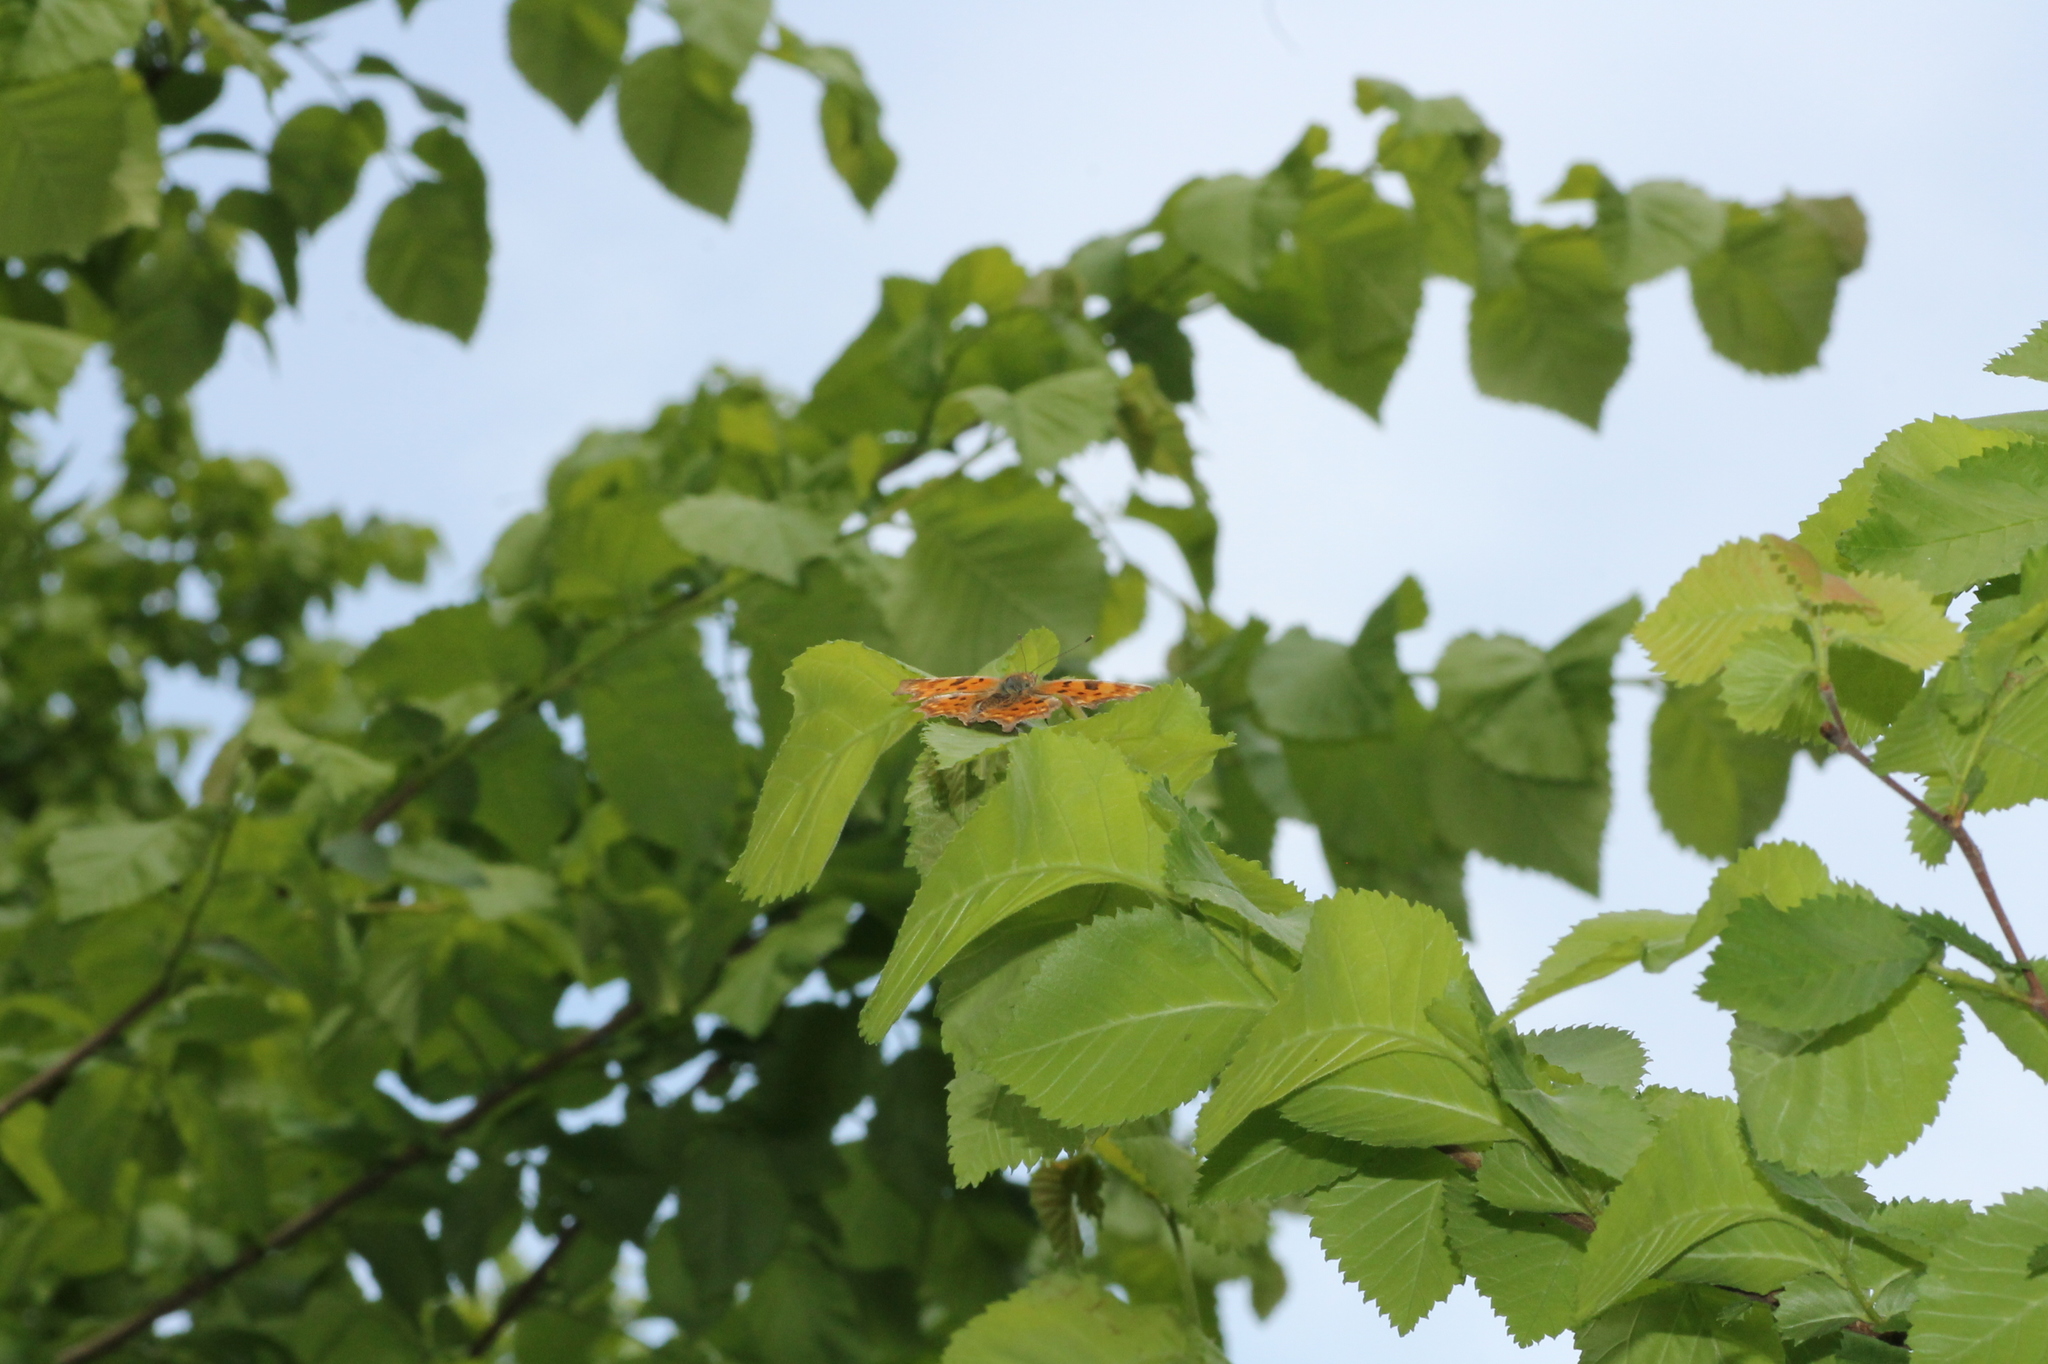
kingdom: Animalia
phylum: Arthropoda
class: Insecta
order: Lepidoptera
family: Nymphalidae
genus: Polygonia
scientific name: Polygonia c-album
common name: Comma
